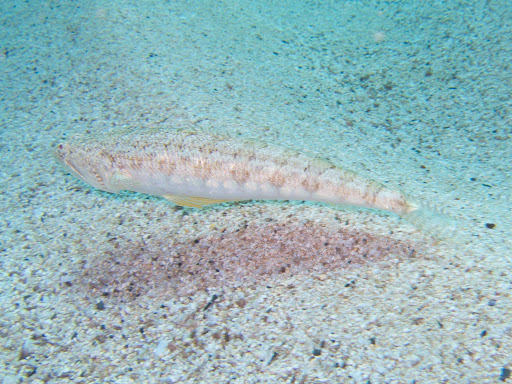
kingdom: Animalia
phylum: Chordata
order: Aulopiformes
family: Synodontidae
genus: Synodus
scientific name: Synodus dermatogenys
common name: Banded lizardfish
